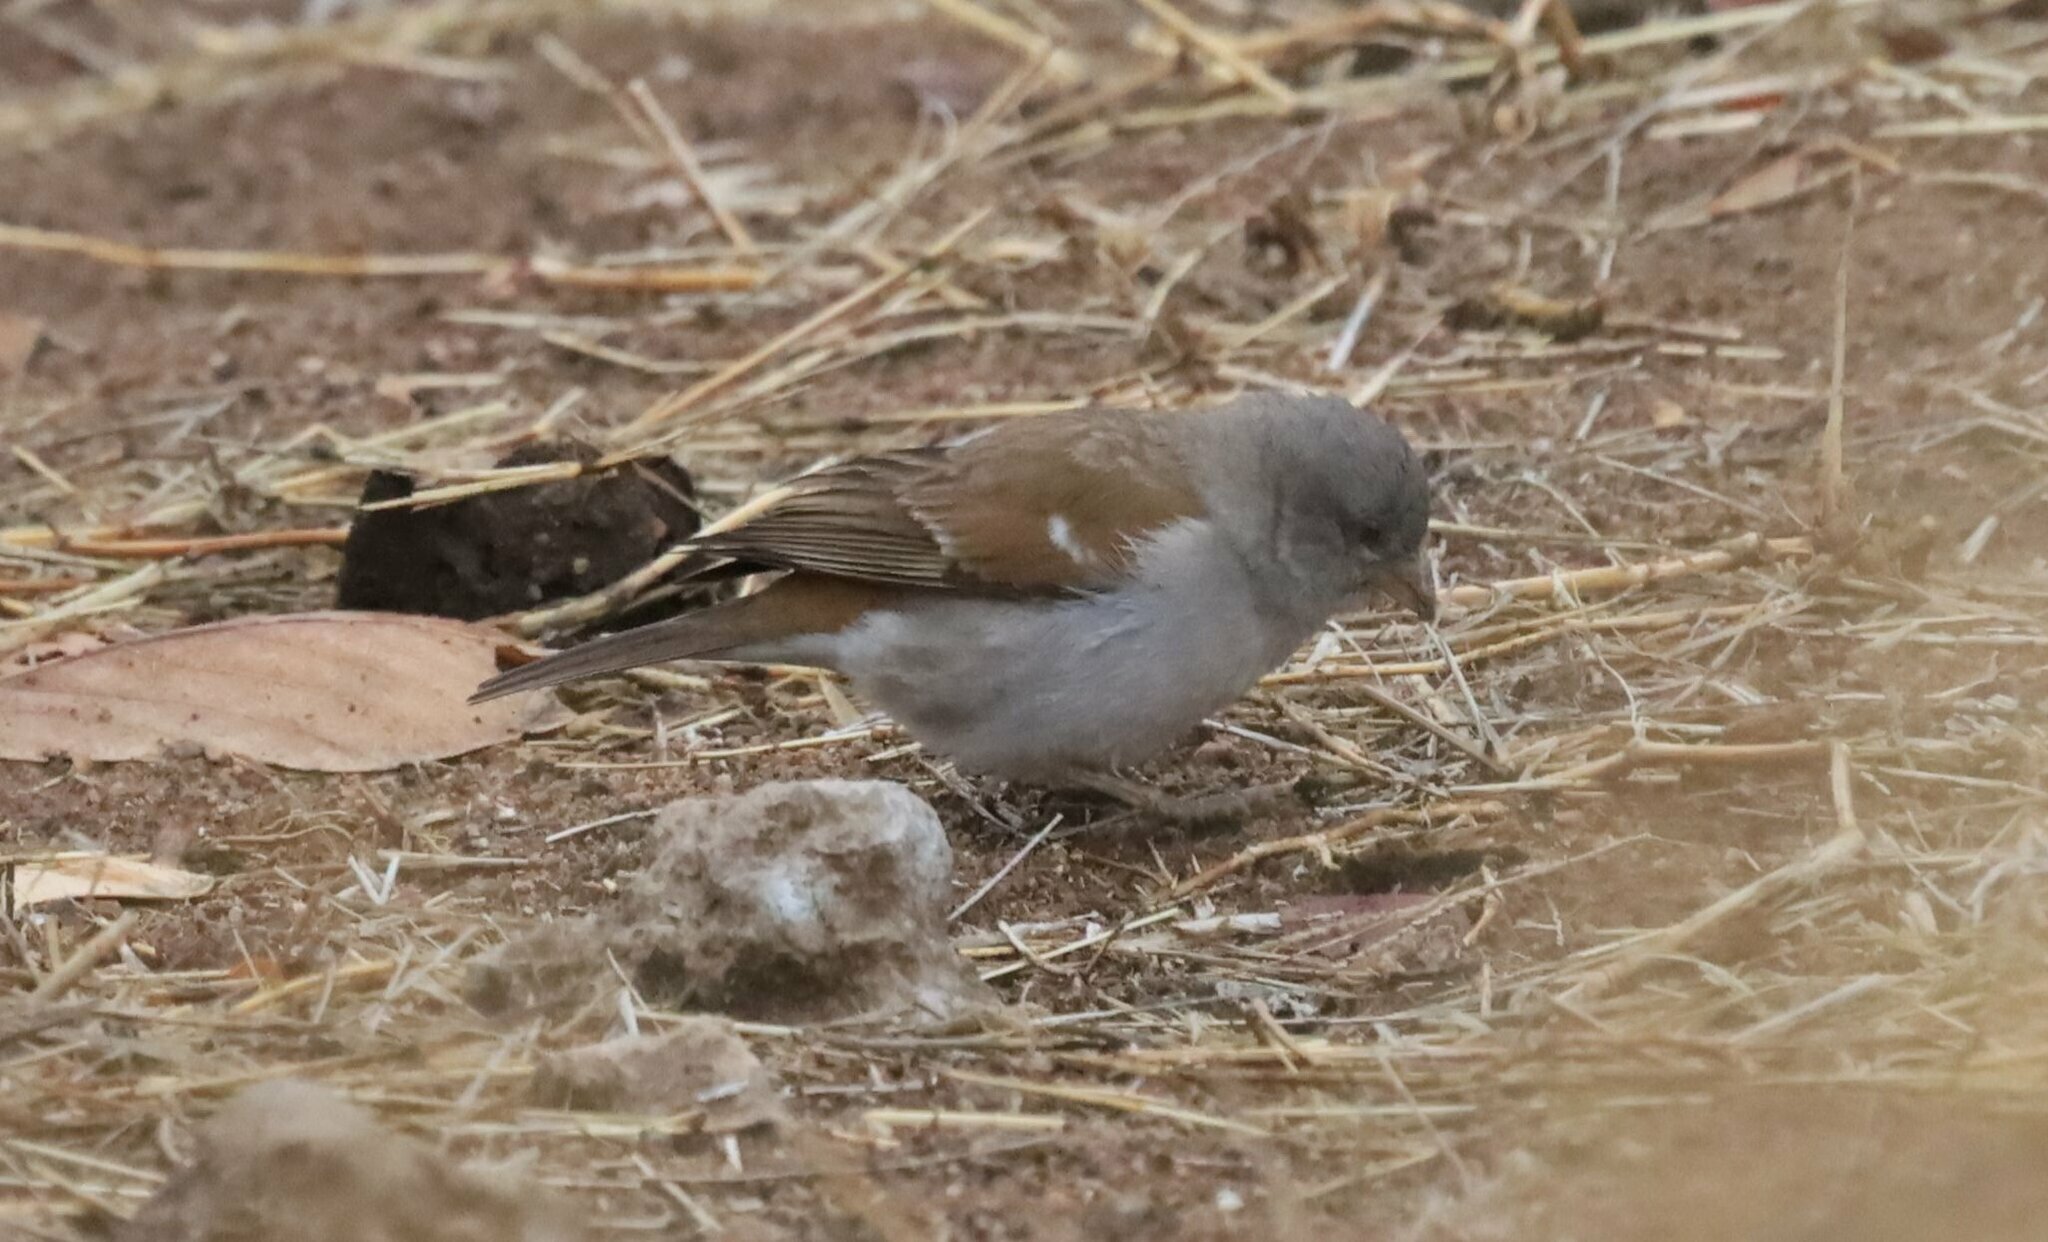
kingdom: Animalia
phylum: Chordata
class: Aves
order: Passeriformes
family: Passeridae
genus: Passer
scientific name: Passer diffusus
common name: Southern grey-headed sparrow
